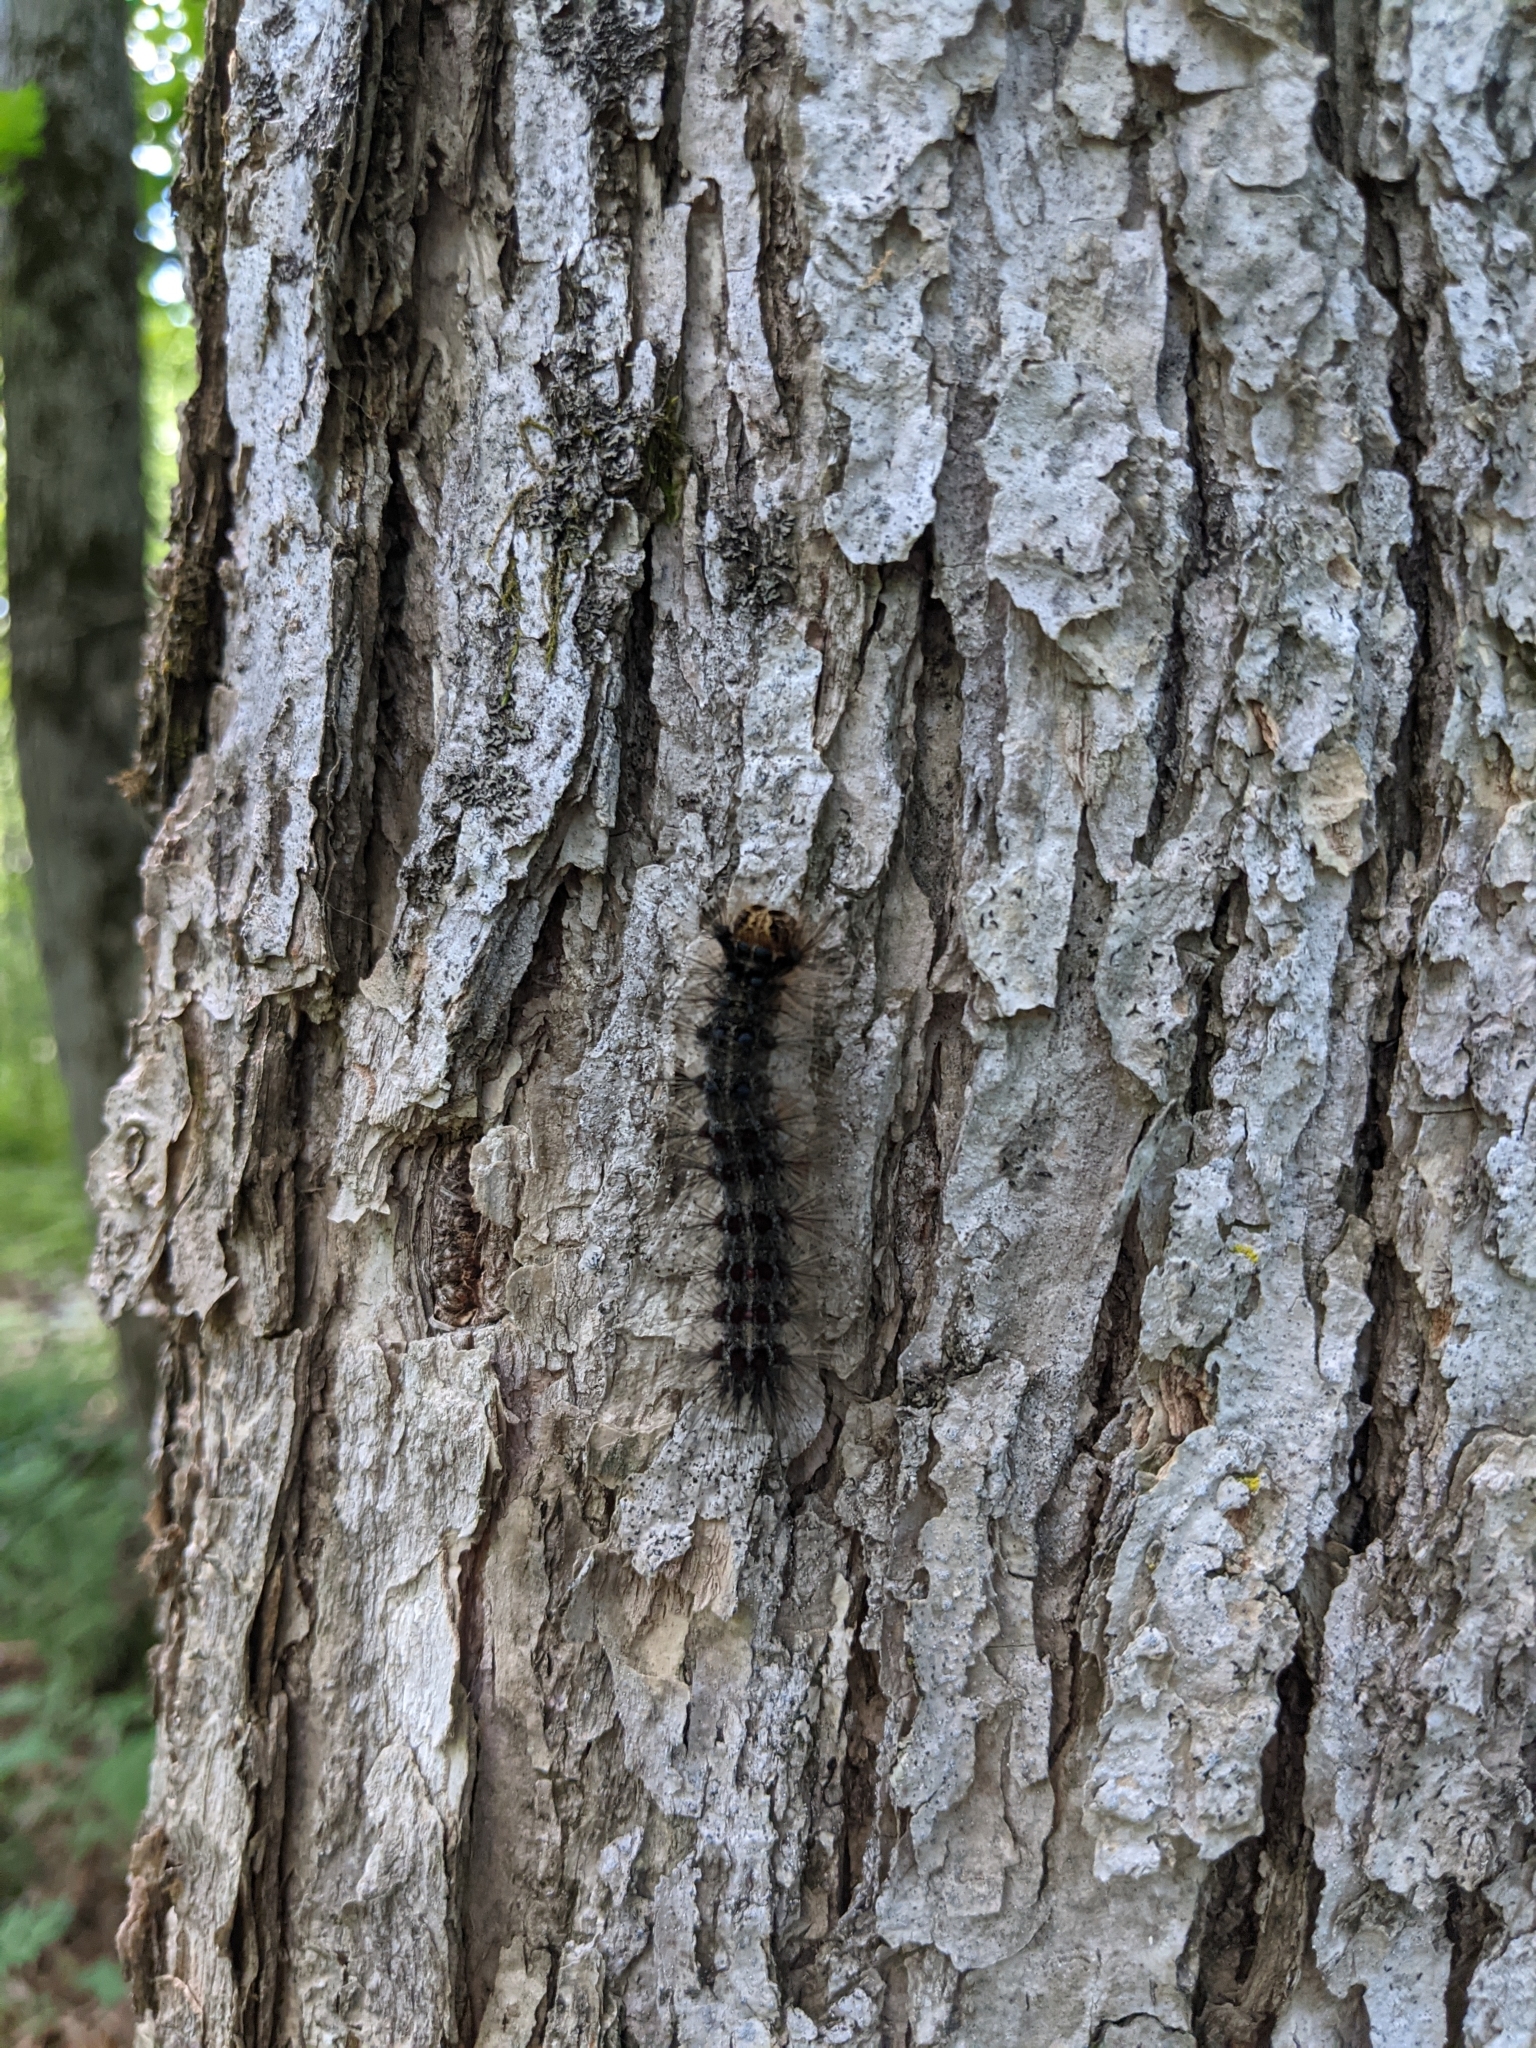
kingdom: Animalia
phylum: Arthropoda
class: Insecta
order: Lepidoptera
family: Erebidae
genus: Lymantria
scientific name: Lymantria dispar
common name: Gypsy moth
